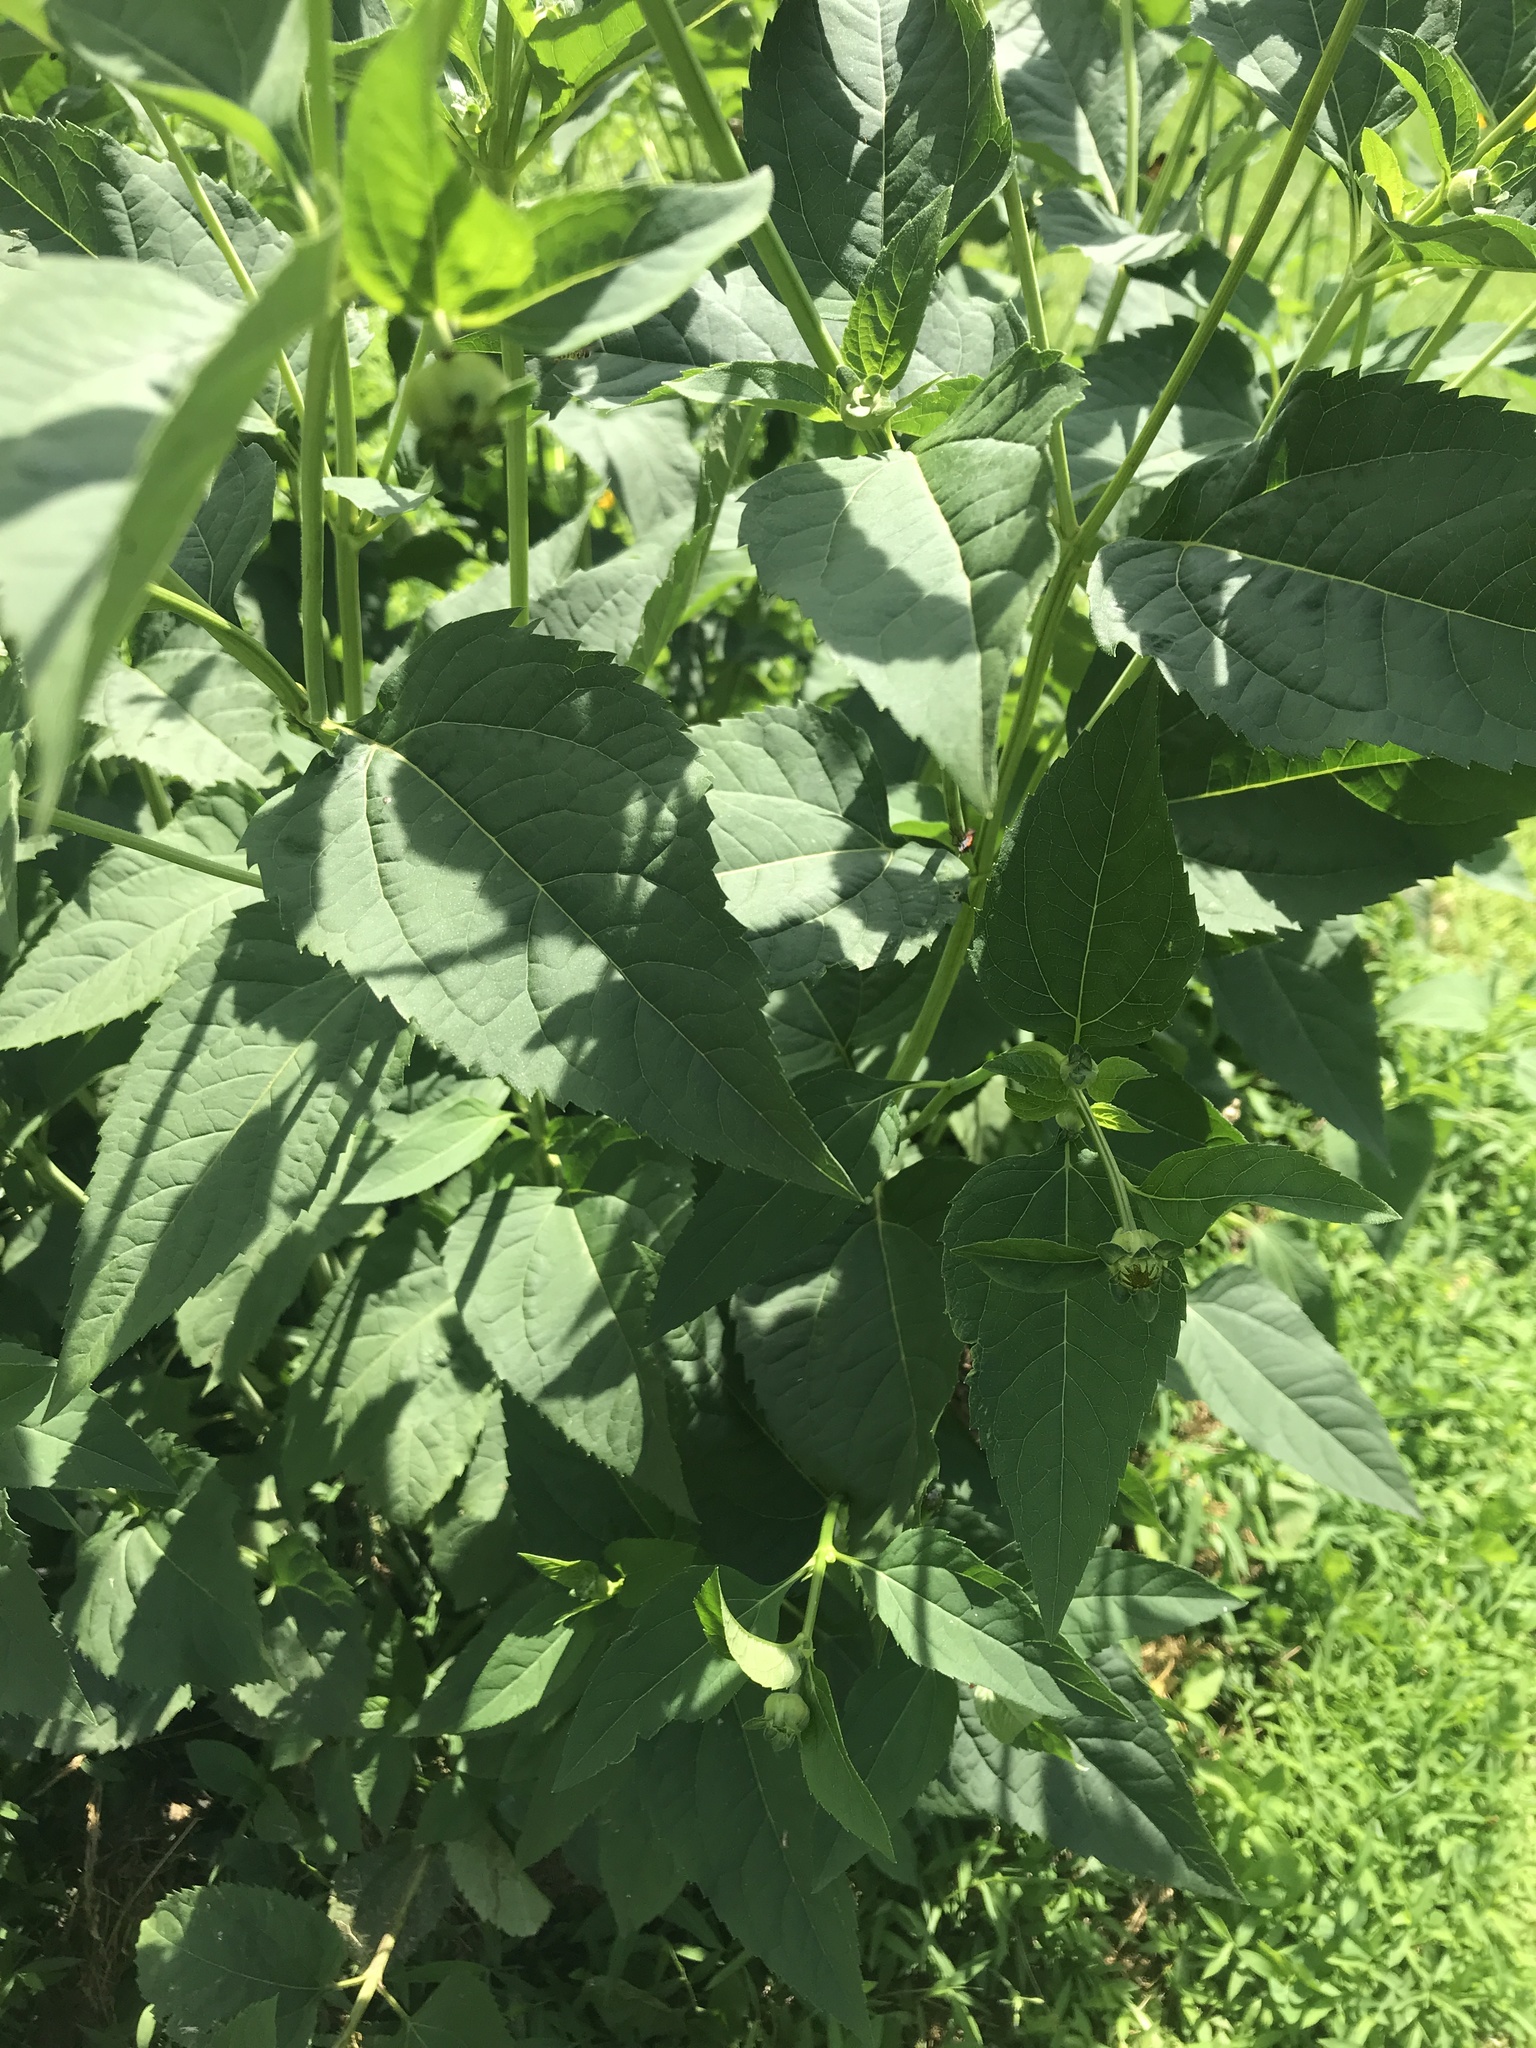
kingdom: Plantae
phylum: Tracheophyta
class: Magnoliopsida
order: Asterales
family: Asteraceae
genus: Heliopsis
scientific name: Heliopsis helianthoides
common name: False sunflower
